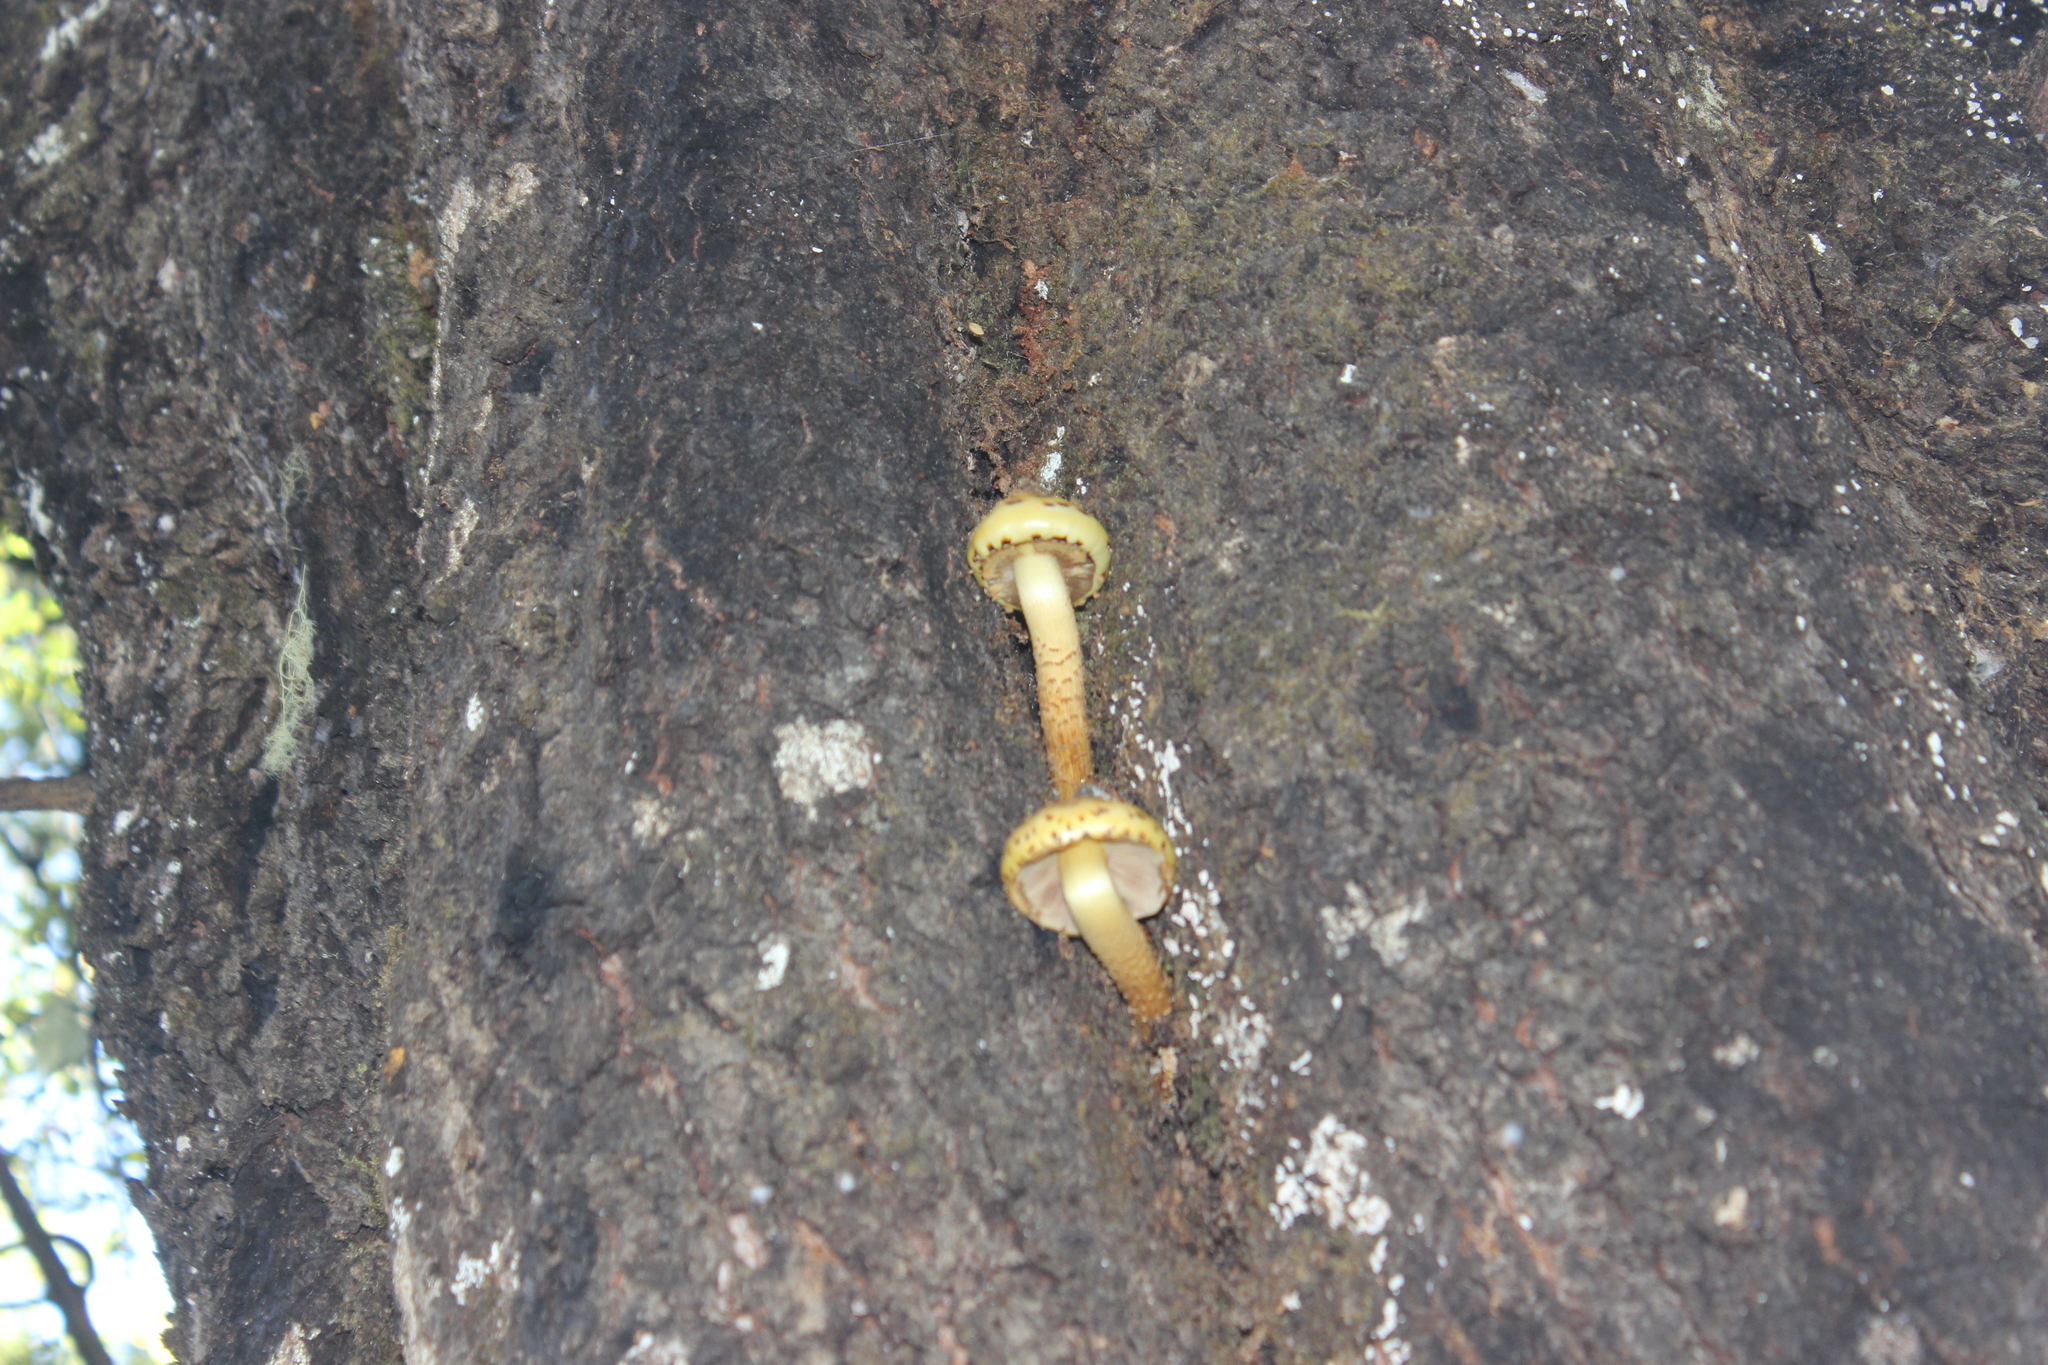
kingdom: Fungi
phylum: Basidiomycota
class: Agaricomycetes
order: Agaricales
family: Strophariaceae
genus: Pholiota
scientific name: Pholiota glutinosa
